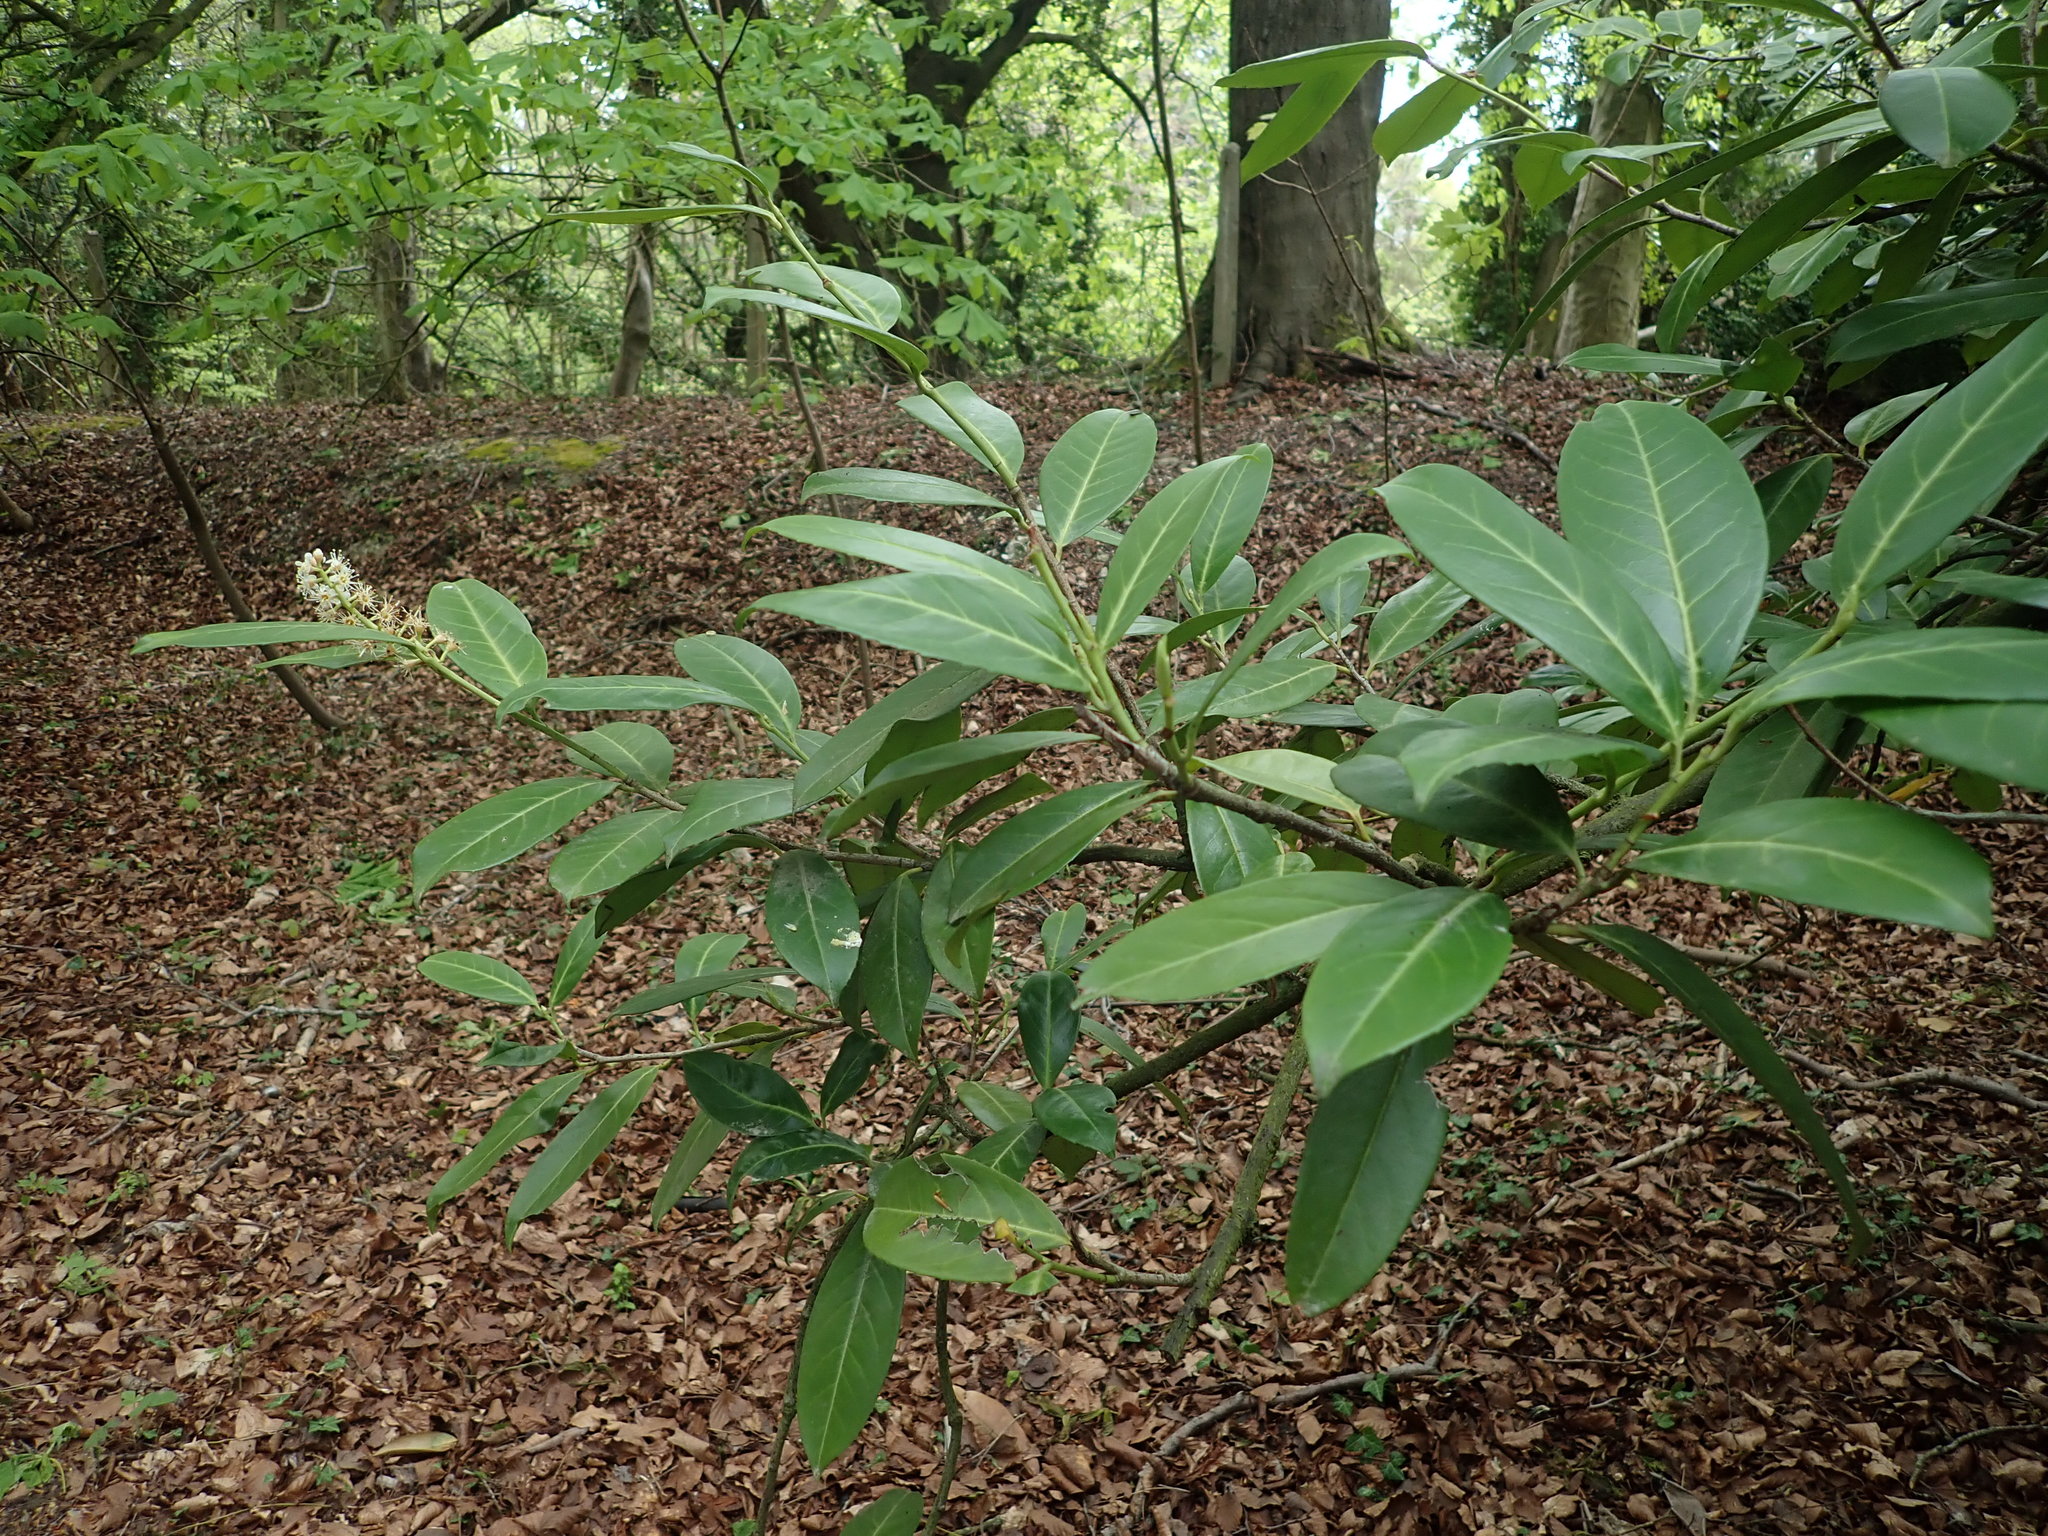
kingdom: Plantae
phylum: Tracheophyta
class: Magnoliopsida
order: Rosales
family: Rosaceae
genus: Prunus
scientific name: Prunus laurocerasus
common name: Cherry laurel
